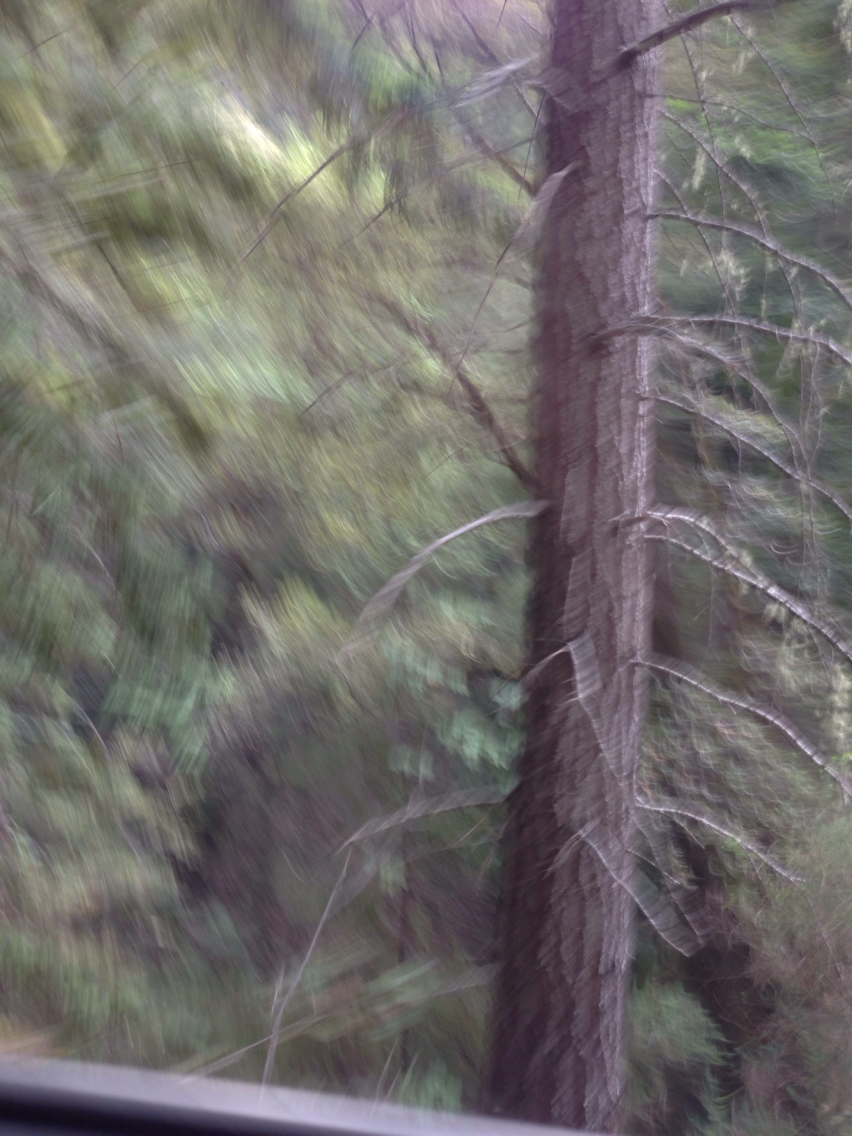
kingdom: Plantae
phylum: Tracheophyta
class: Pinopsida
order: Pinales
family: Pinaceae
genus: Pseudotsuga
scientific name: Pseudotsuga menziesii
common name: Douglas fir
